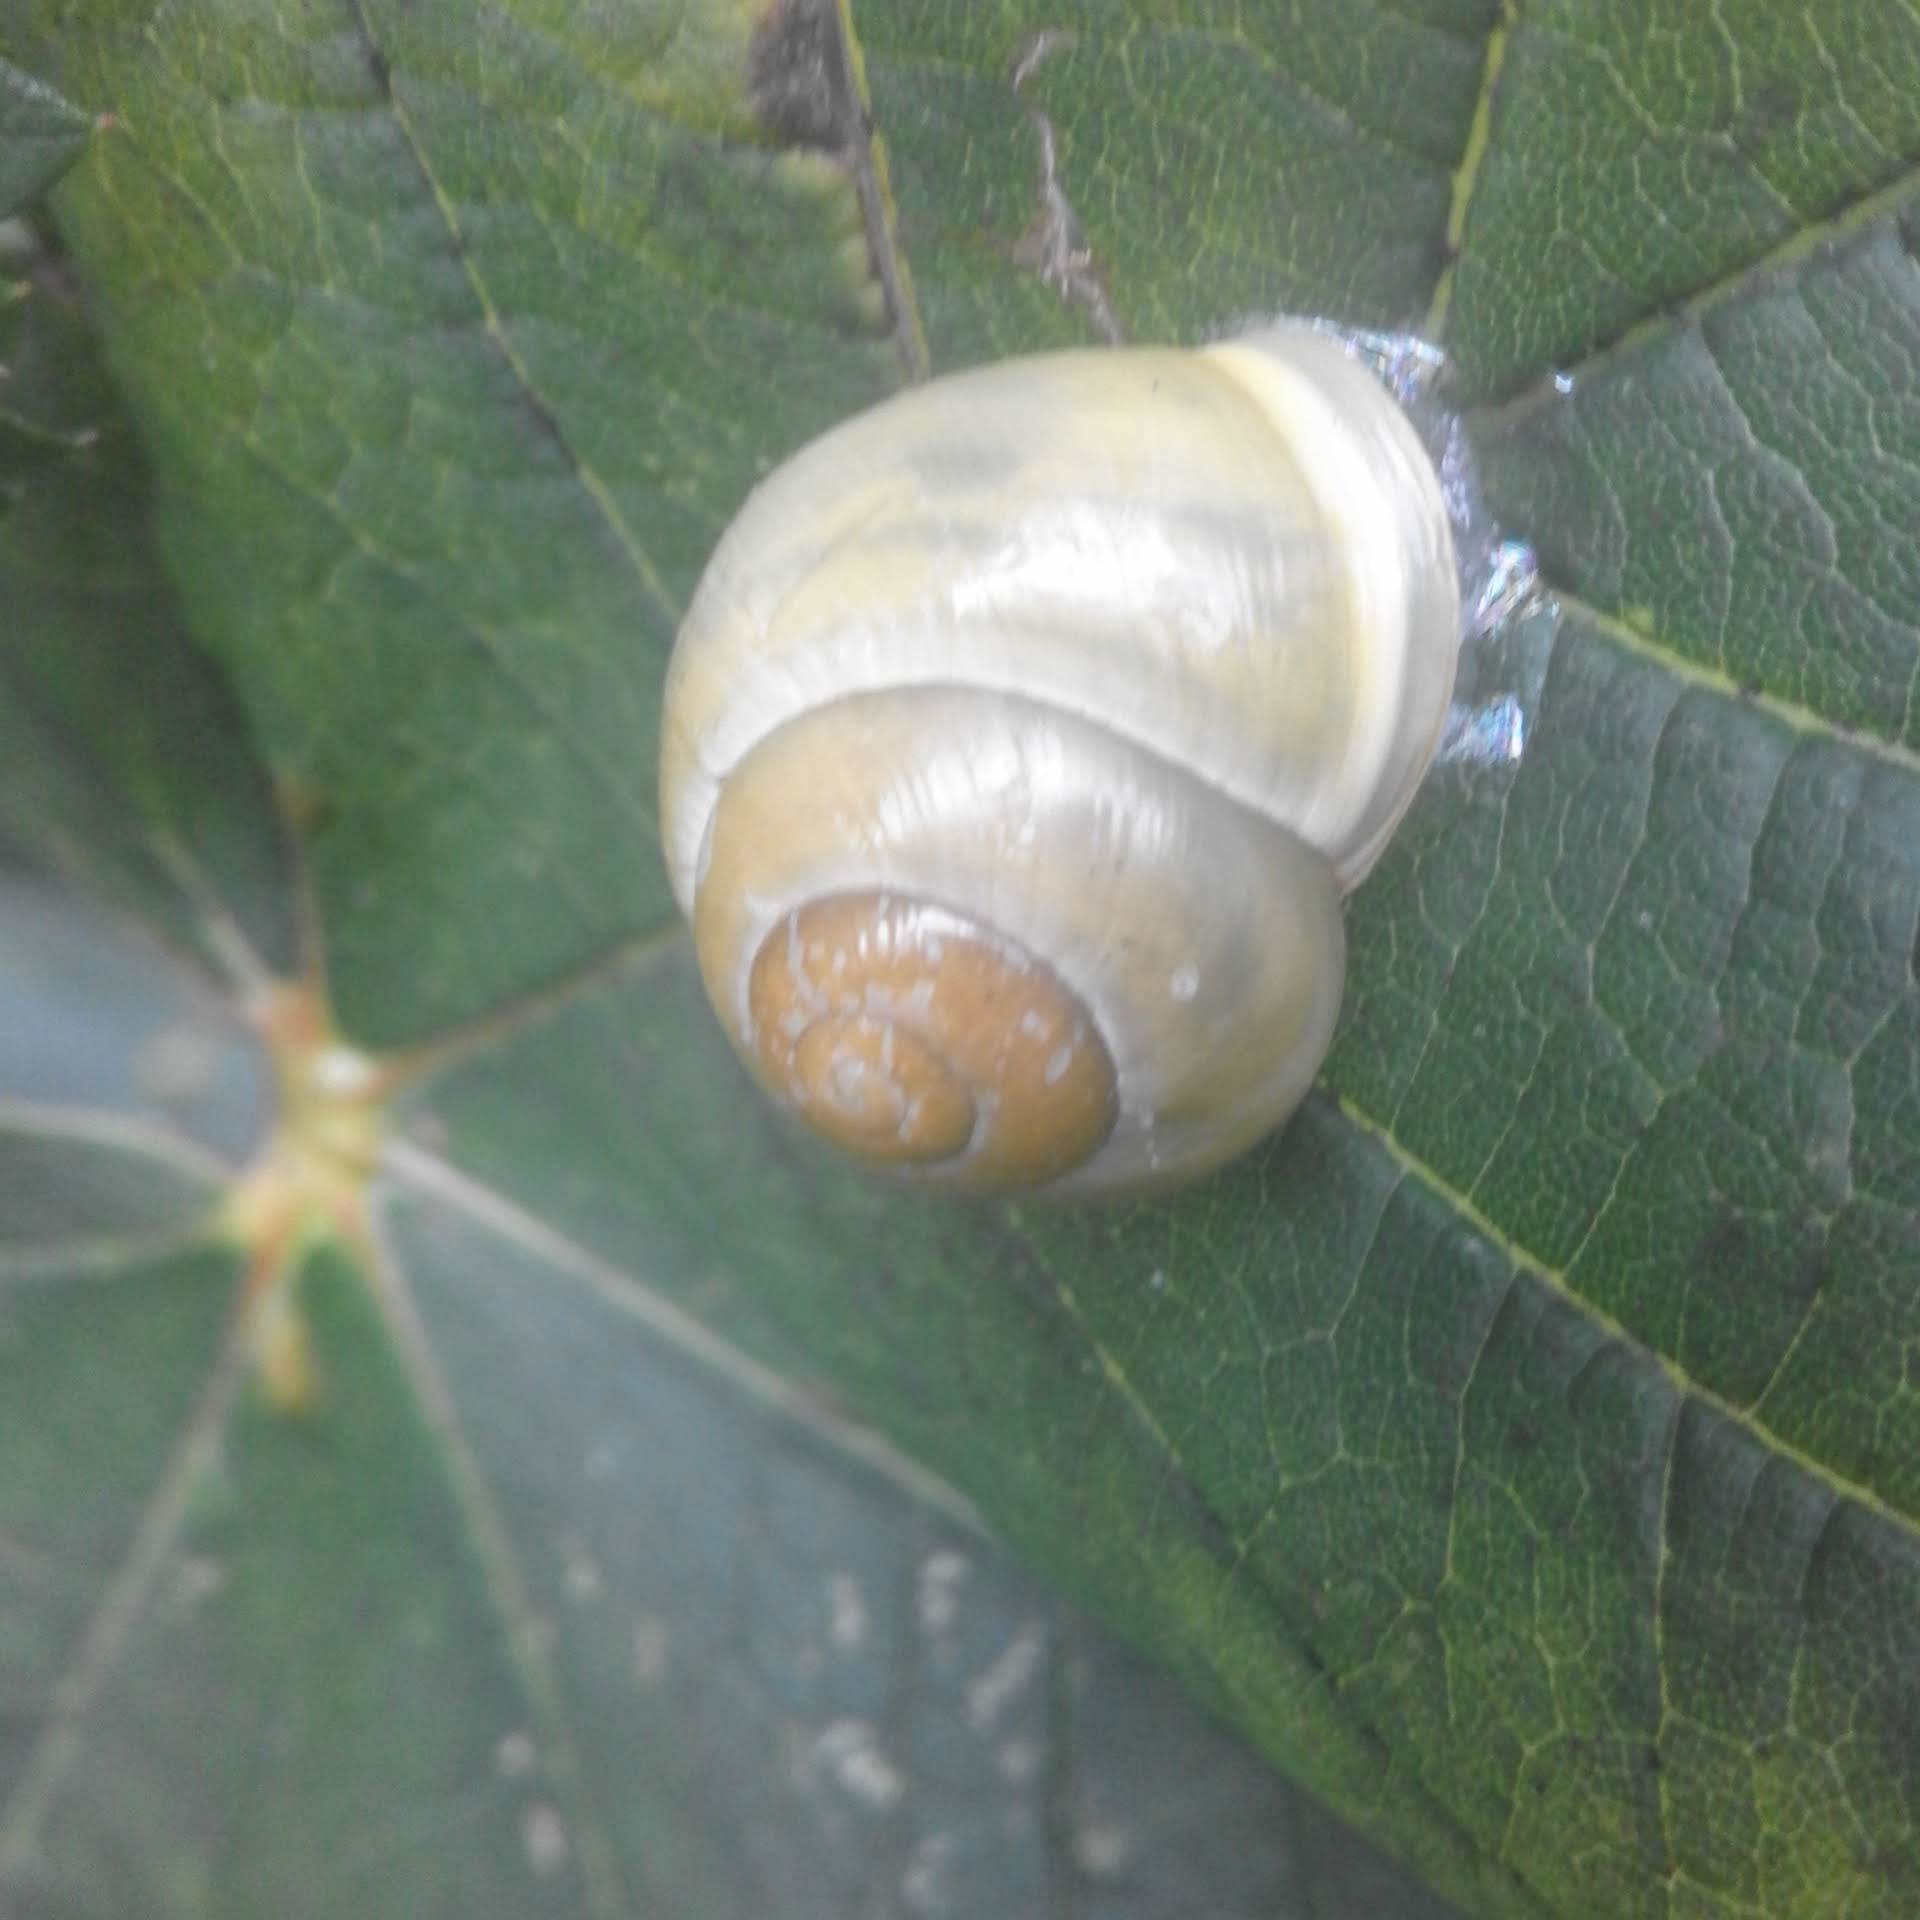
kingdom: Animalia
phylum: Mollusca
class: Gastropoda
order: Stylommatophora
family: Helicidae
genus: Cepaea
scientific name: Cepaea hortensis
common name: White-lip gardensnail
